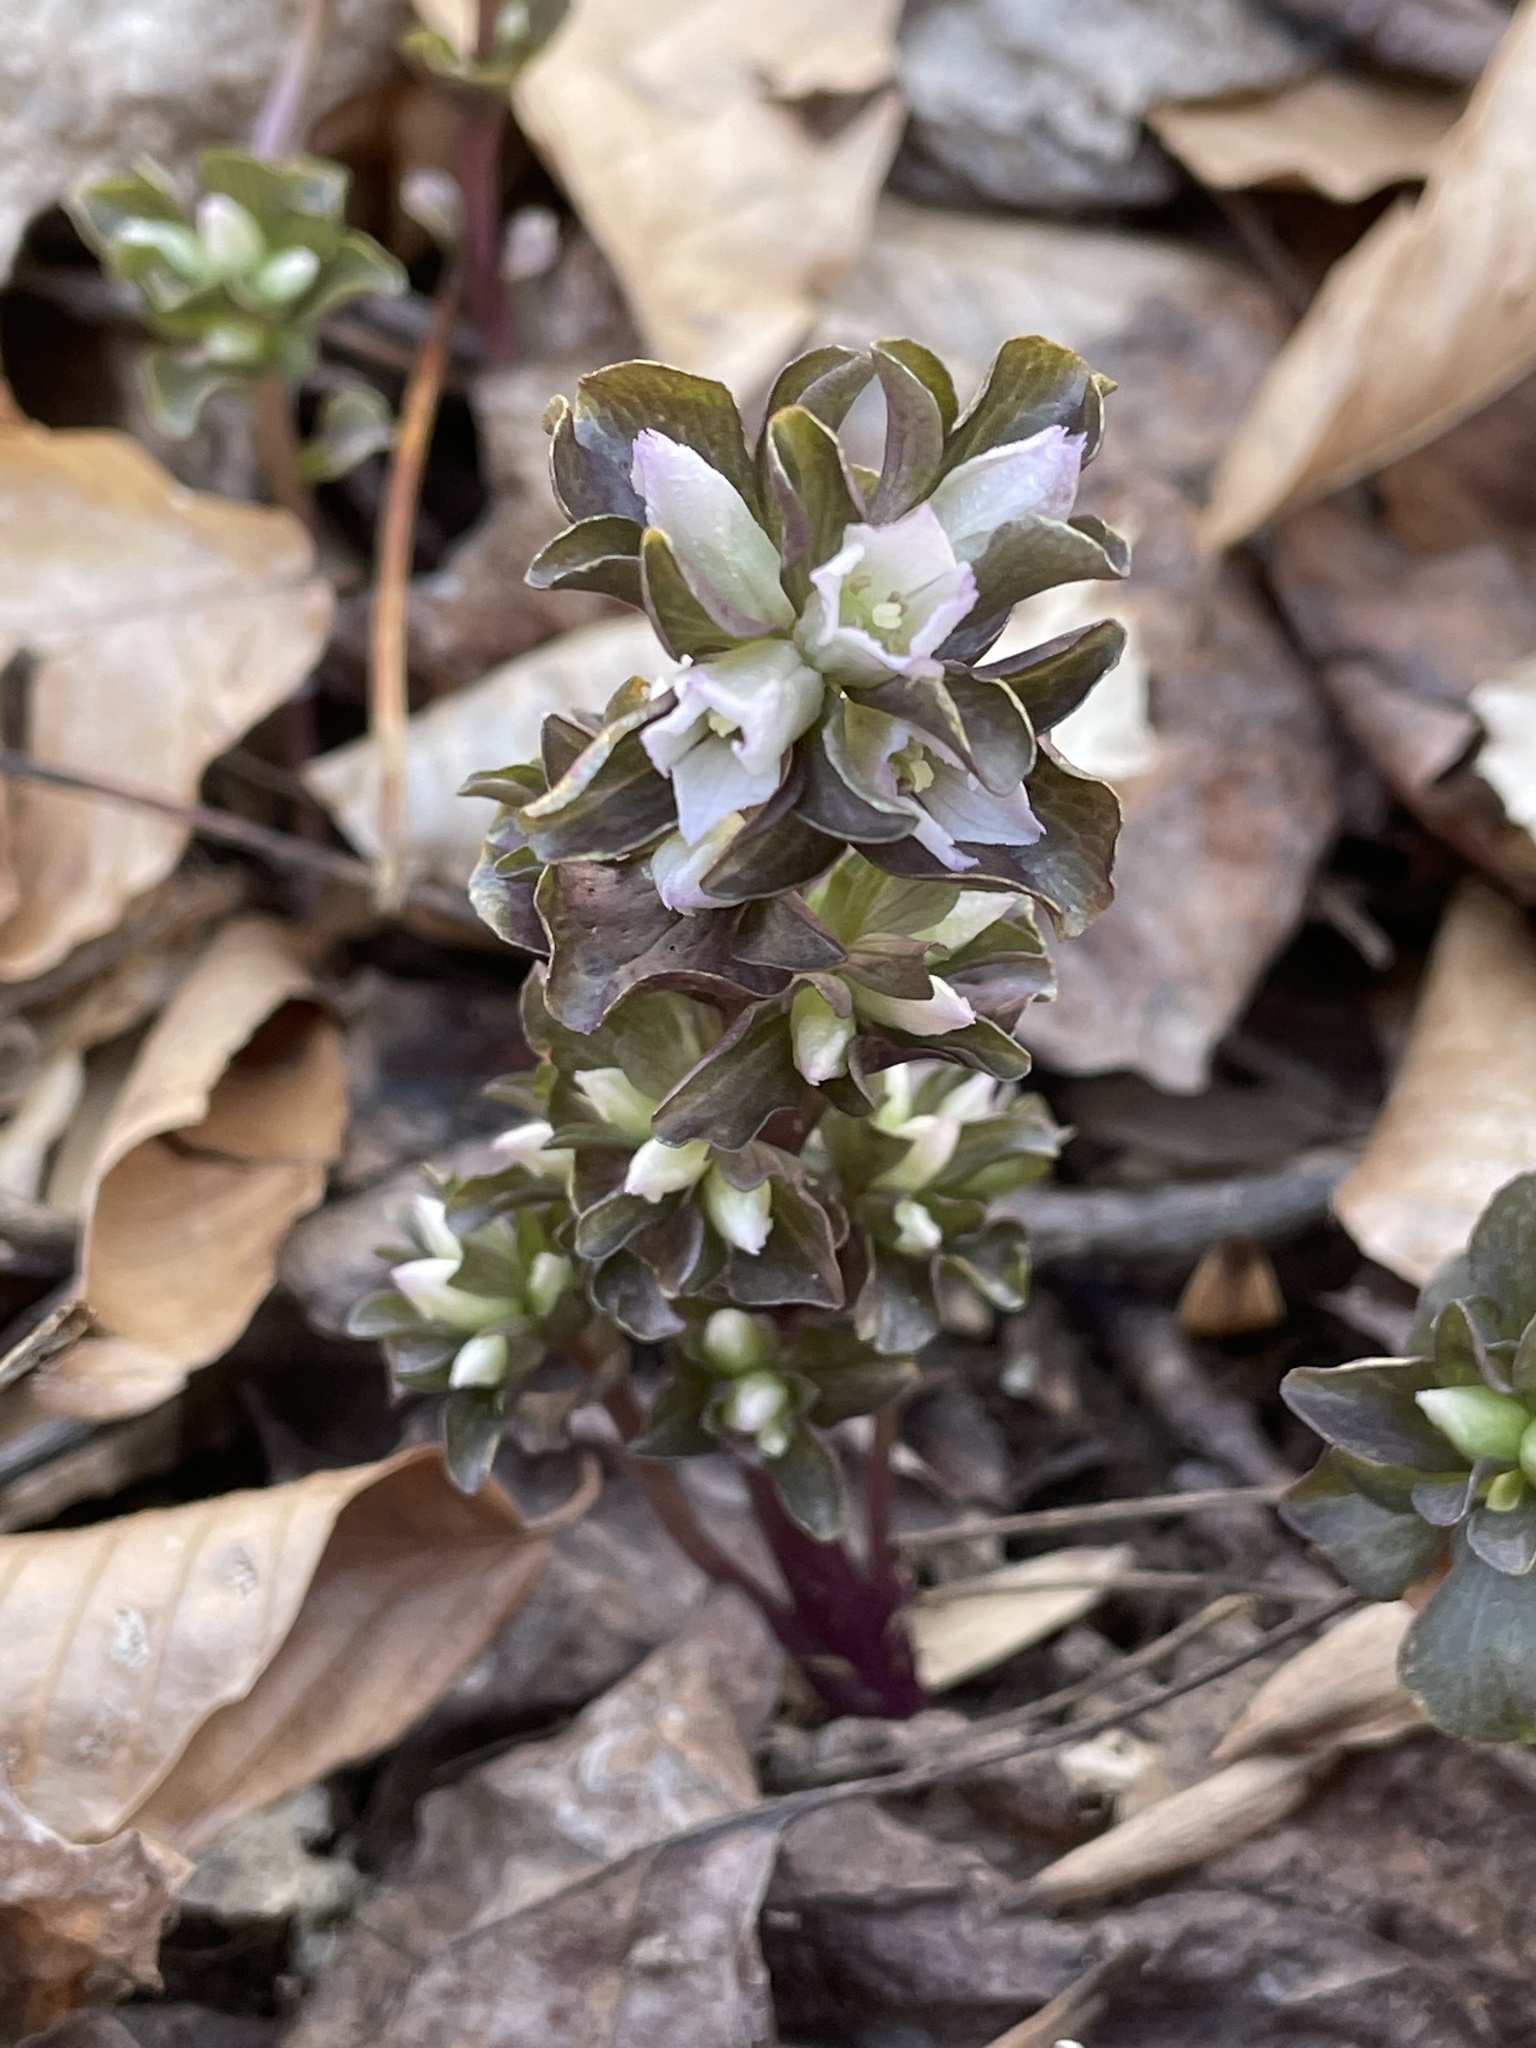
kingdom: Plantae
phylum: Tracheophyta
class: Magnoliopsida
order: Gentianales
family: Gentianaceae
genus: Obolaria
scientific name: Obolaria virginica
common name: Pennywort
